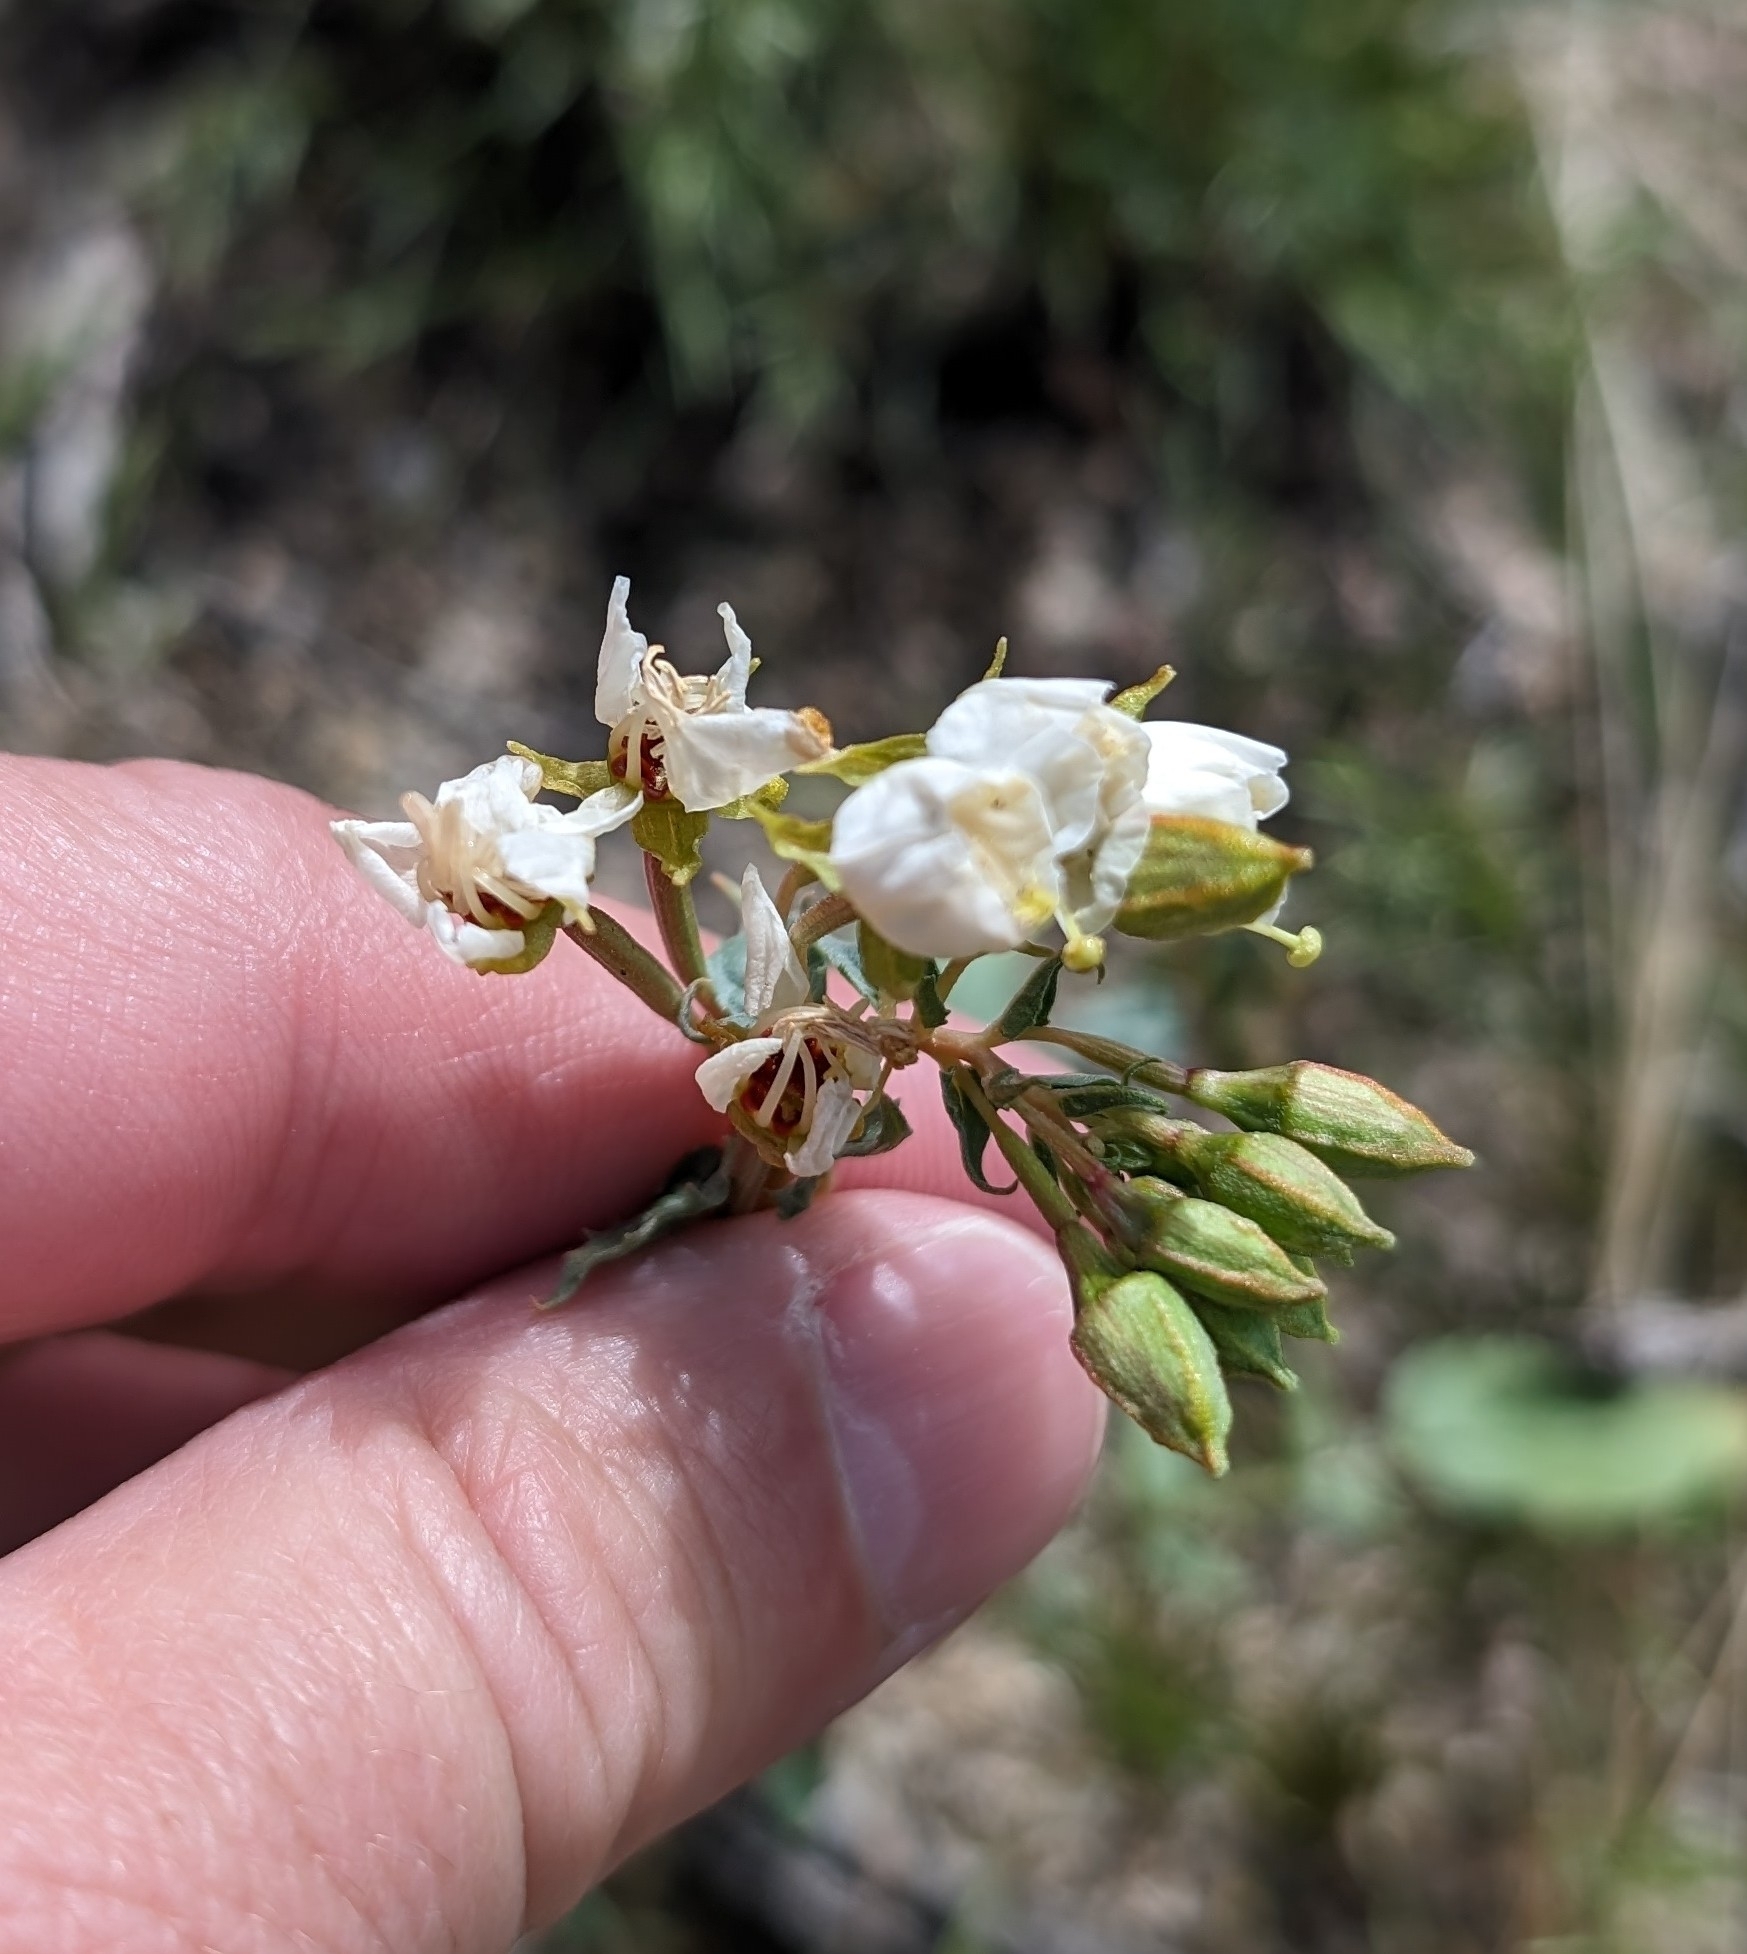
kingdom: Plantae
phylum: Tracheophyta
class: Magnoliopsida
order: Myrtales
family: Onagraceae
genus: Chylismia
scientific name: Chylismia claviformis
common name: Browneyes
